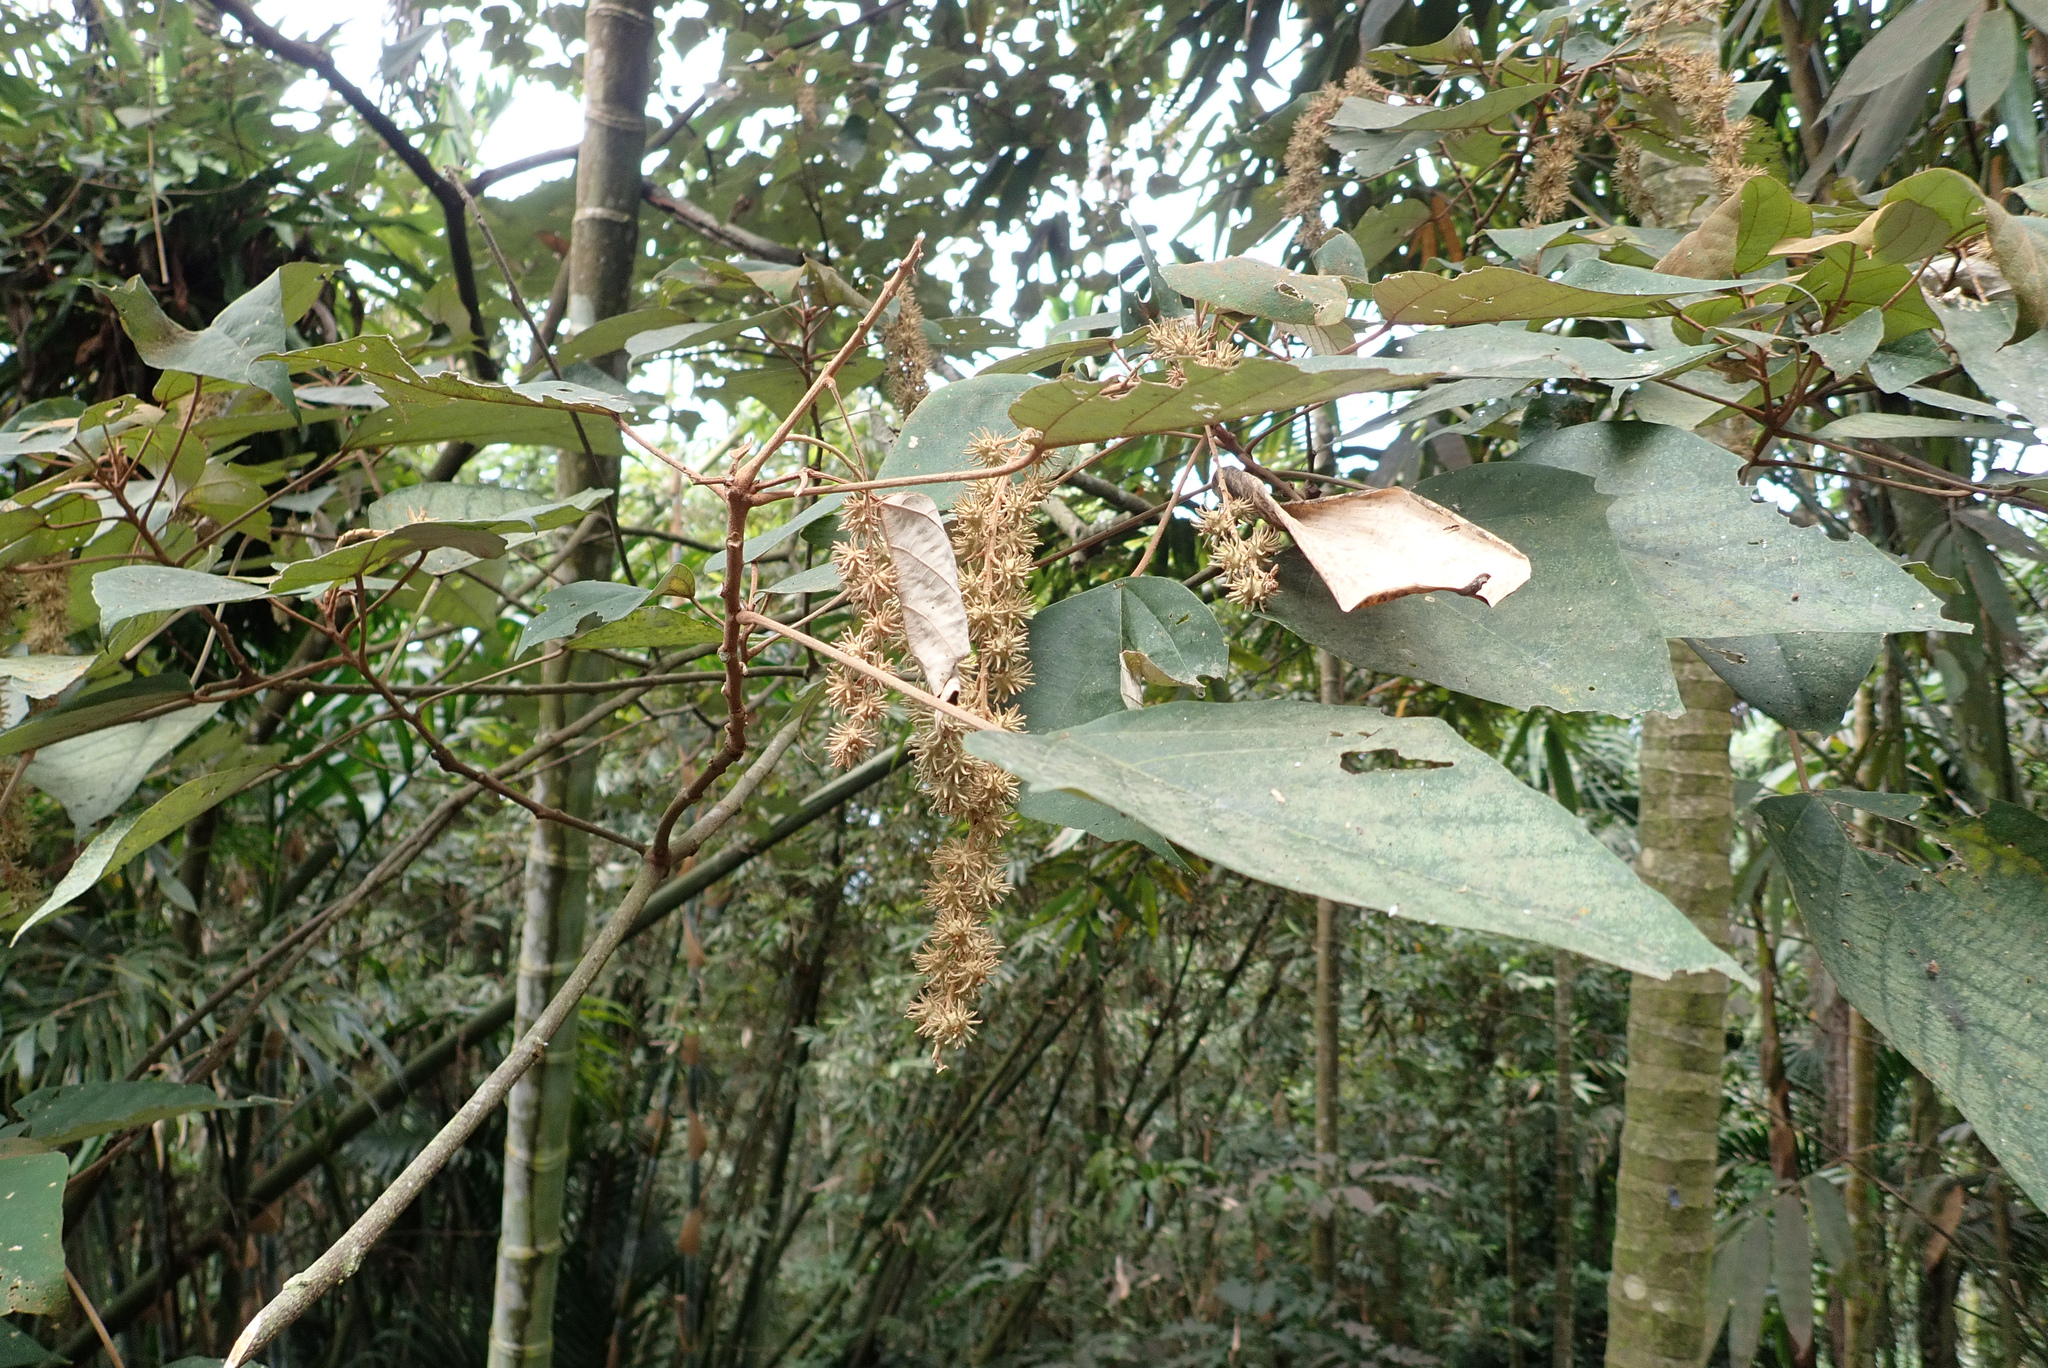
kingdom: Plantae
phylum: Tracheophyta
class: Magnoliopsida
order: Malpighiales
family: Euphorbiaceae
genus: Mallotus
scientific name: Mallotus paniculatus
